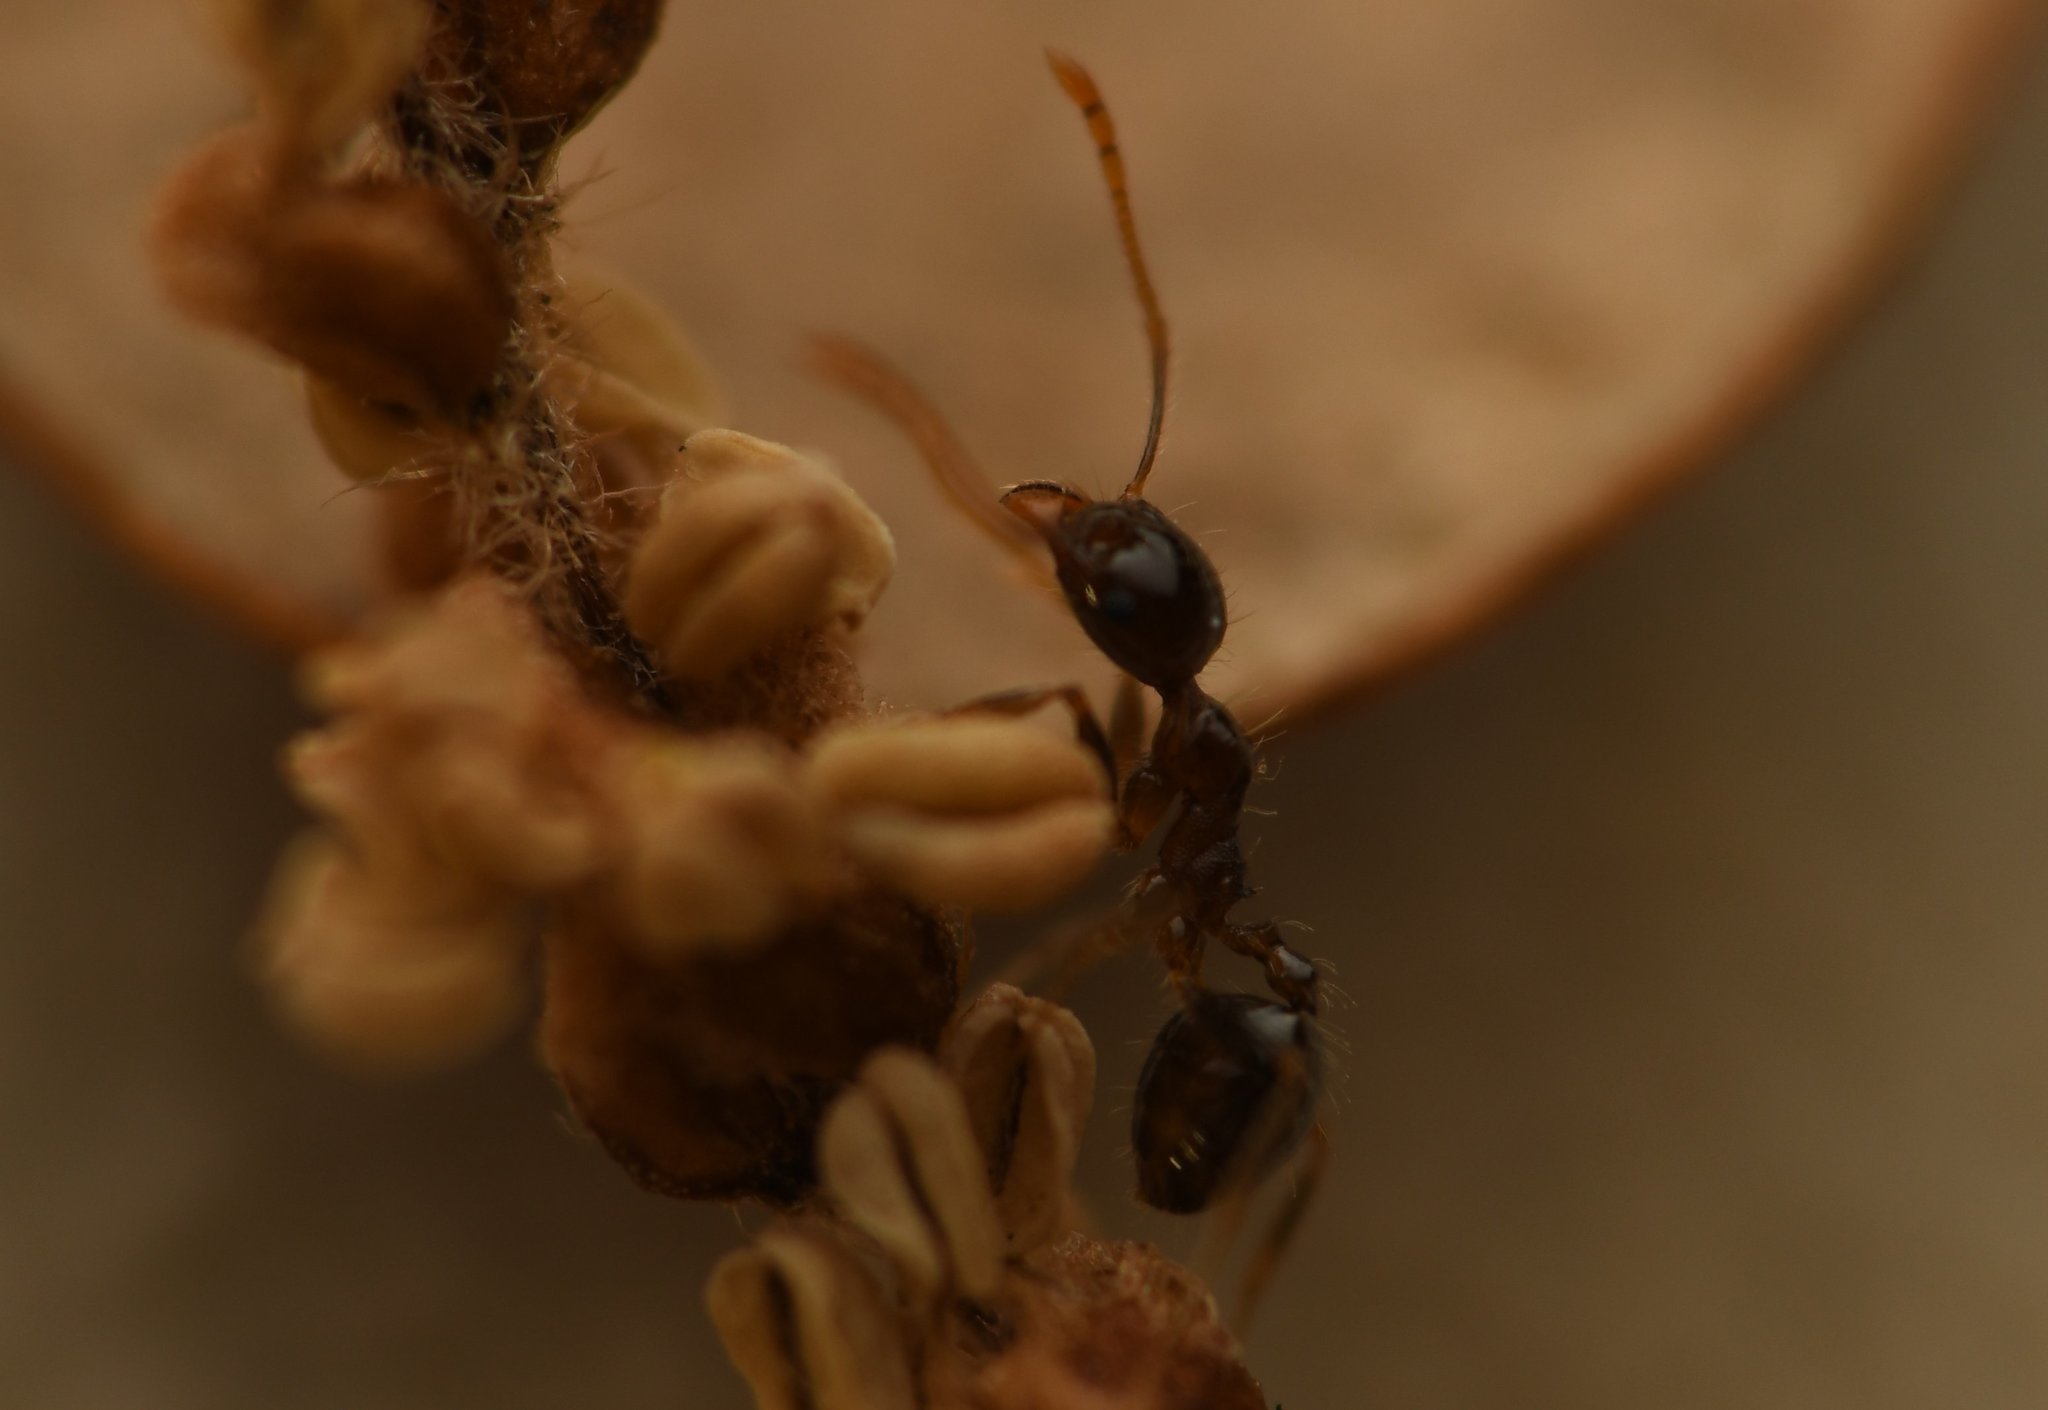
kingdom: Animalia
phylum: Arthropoda
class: Insecta
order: Hymenoptera
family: Formicidae
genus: Pheidole
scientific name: Pheidole megacephala
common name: Bigheaded ant
